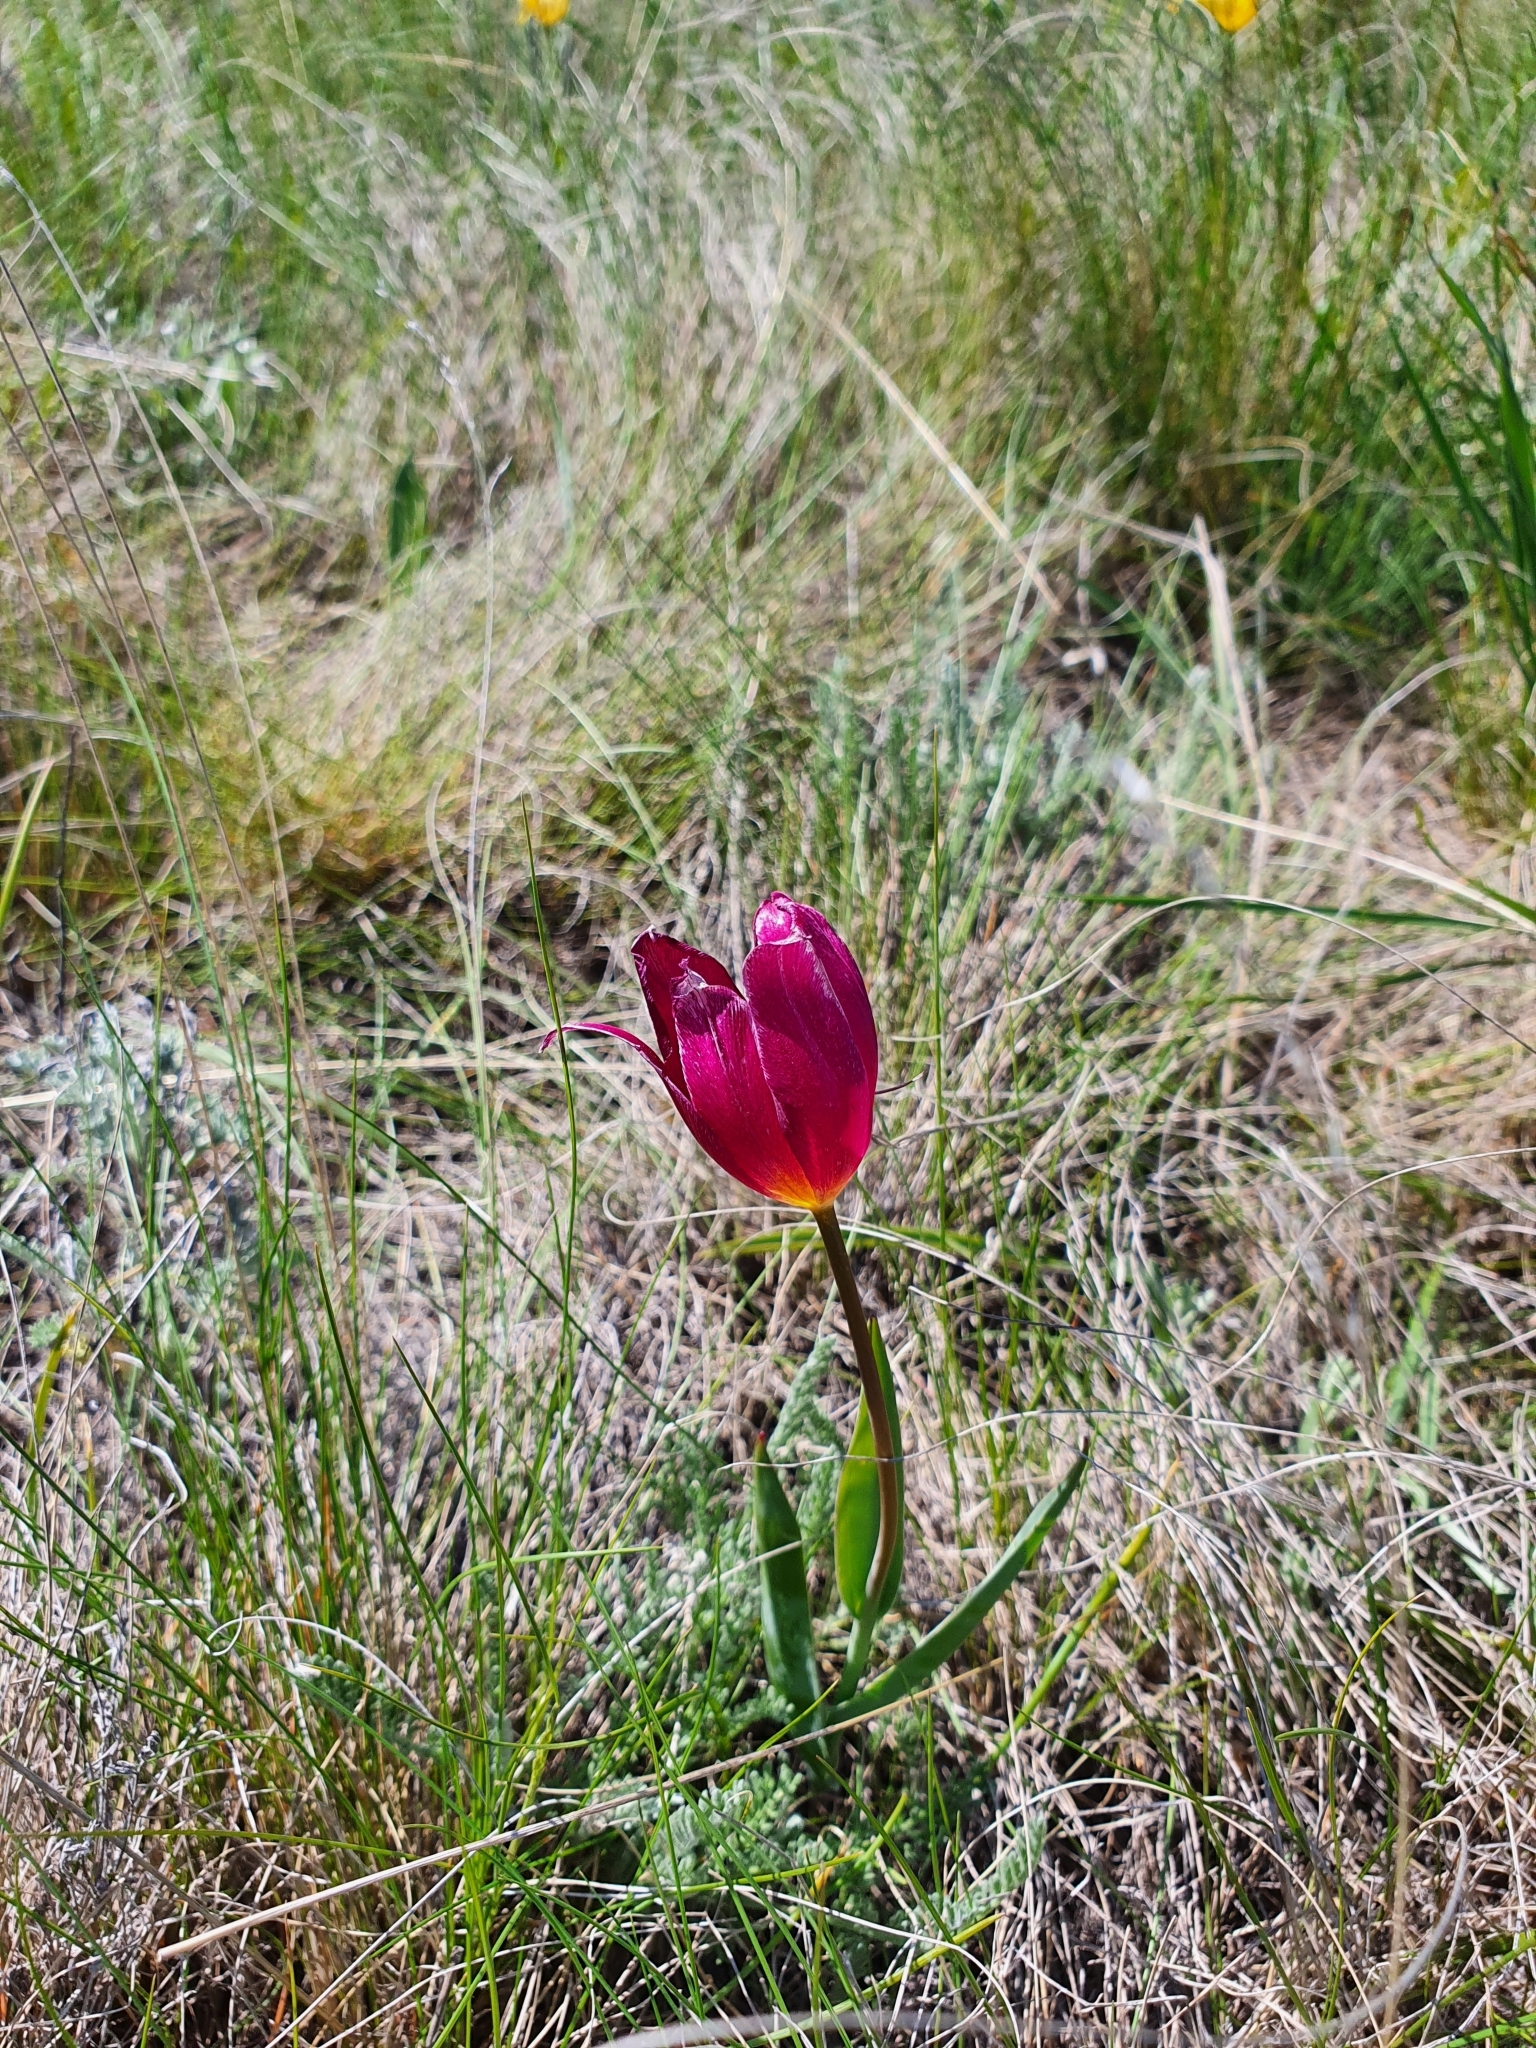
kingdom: Plantae
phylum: Tracheophyta
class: Liliopsida
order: Liliales
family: Liliaceae
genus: Tulipa
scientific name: Tulipa suaveolens
